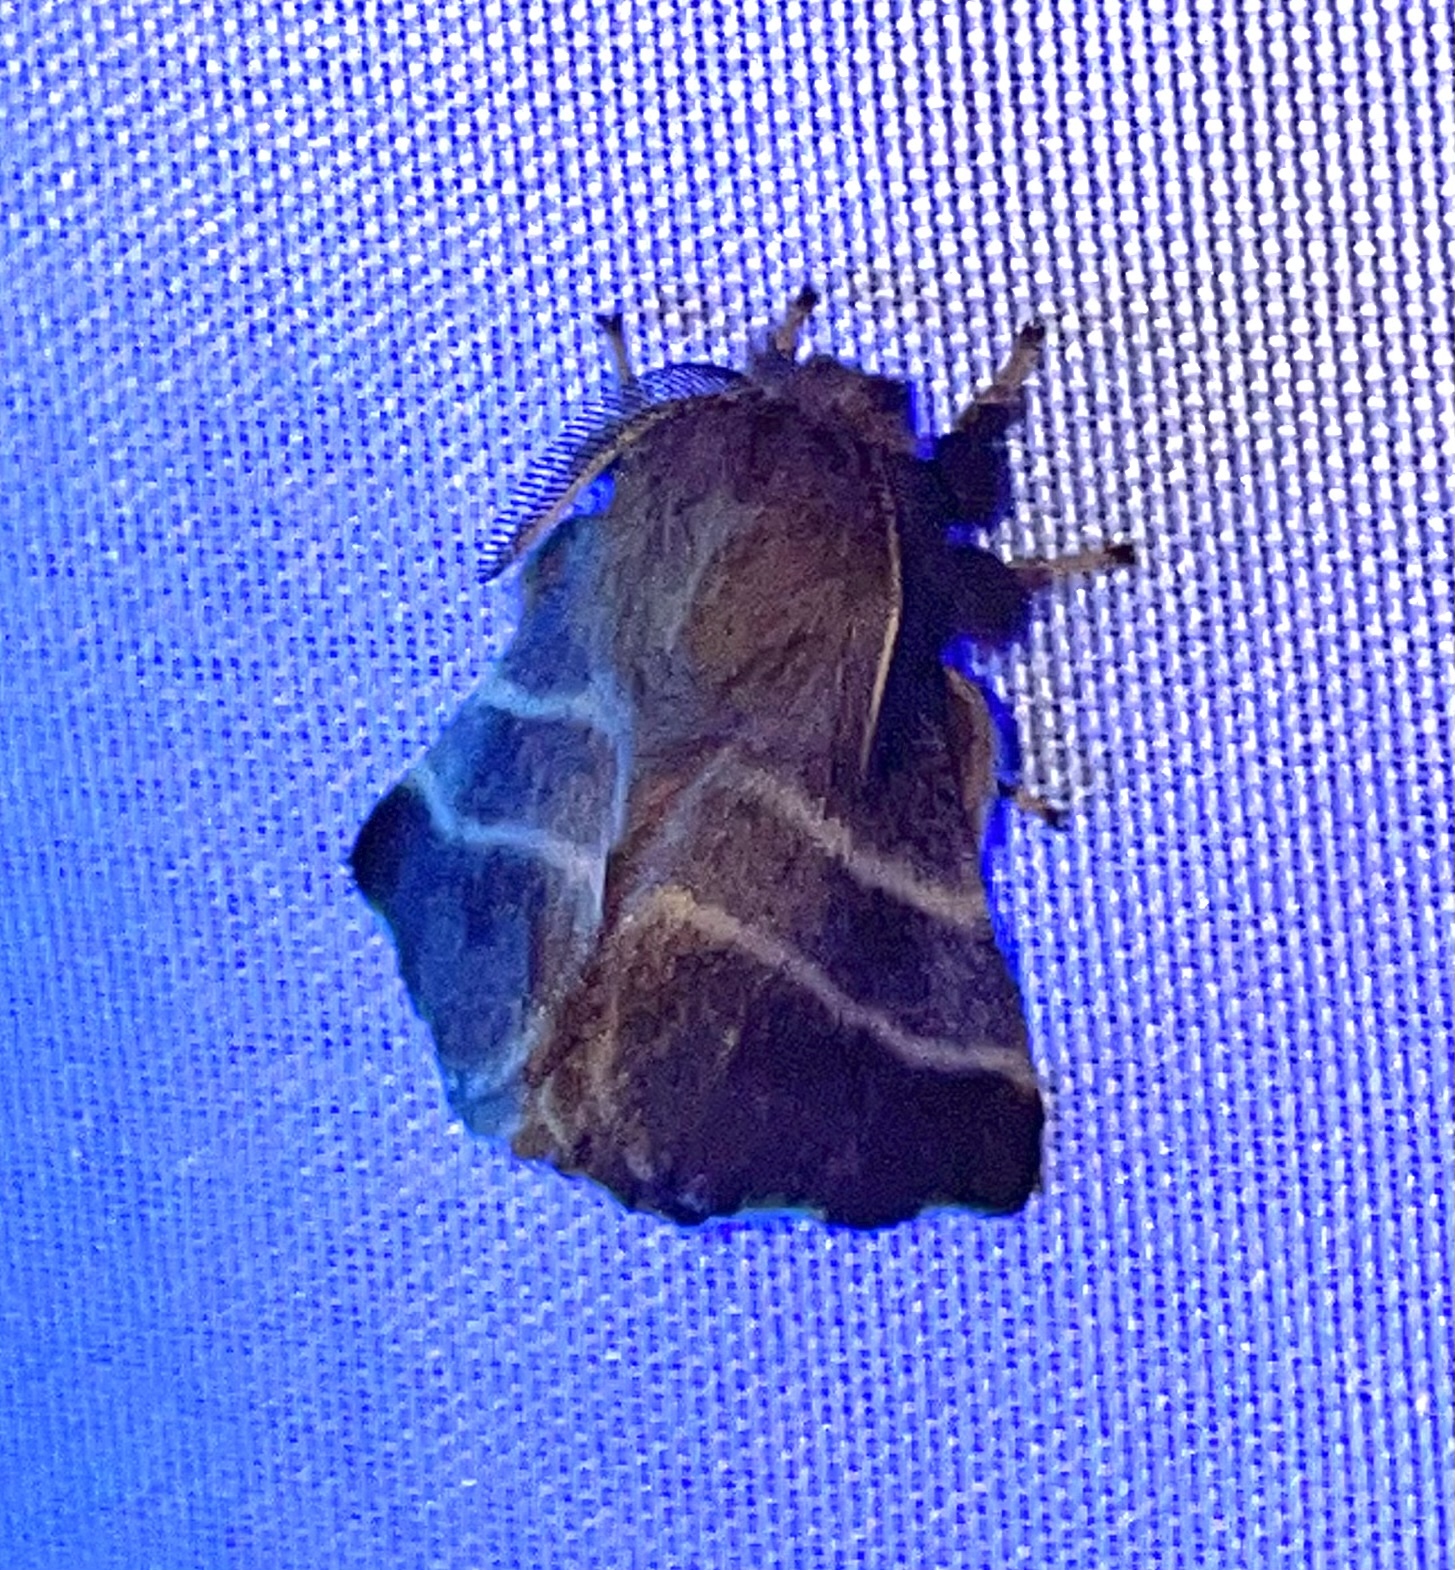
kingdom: Animalia
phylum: Arthropoda
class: Insecta
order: Lepidoptera
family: Lasiocampidae
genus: Malacosoma
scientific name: Malacosoma americana
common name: Eastern tent caterpillar moth
